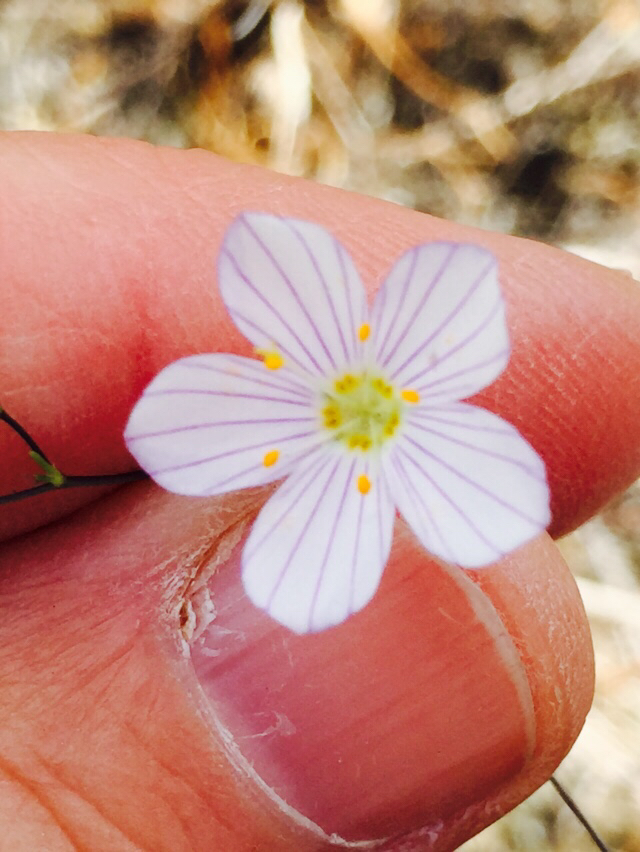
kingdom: Plantae
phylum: Tracheophyta
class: Magnoliopsida
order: Ericales
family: Polemoniaceae
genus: Leptosiphon
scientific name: Leptosiphon liniflorus
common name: Narrowflower flaxflower
